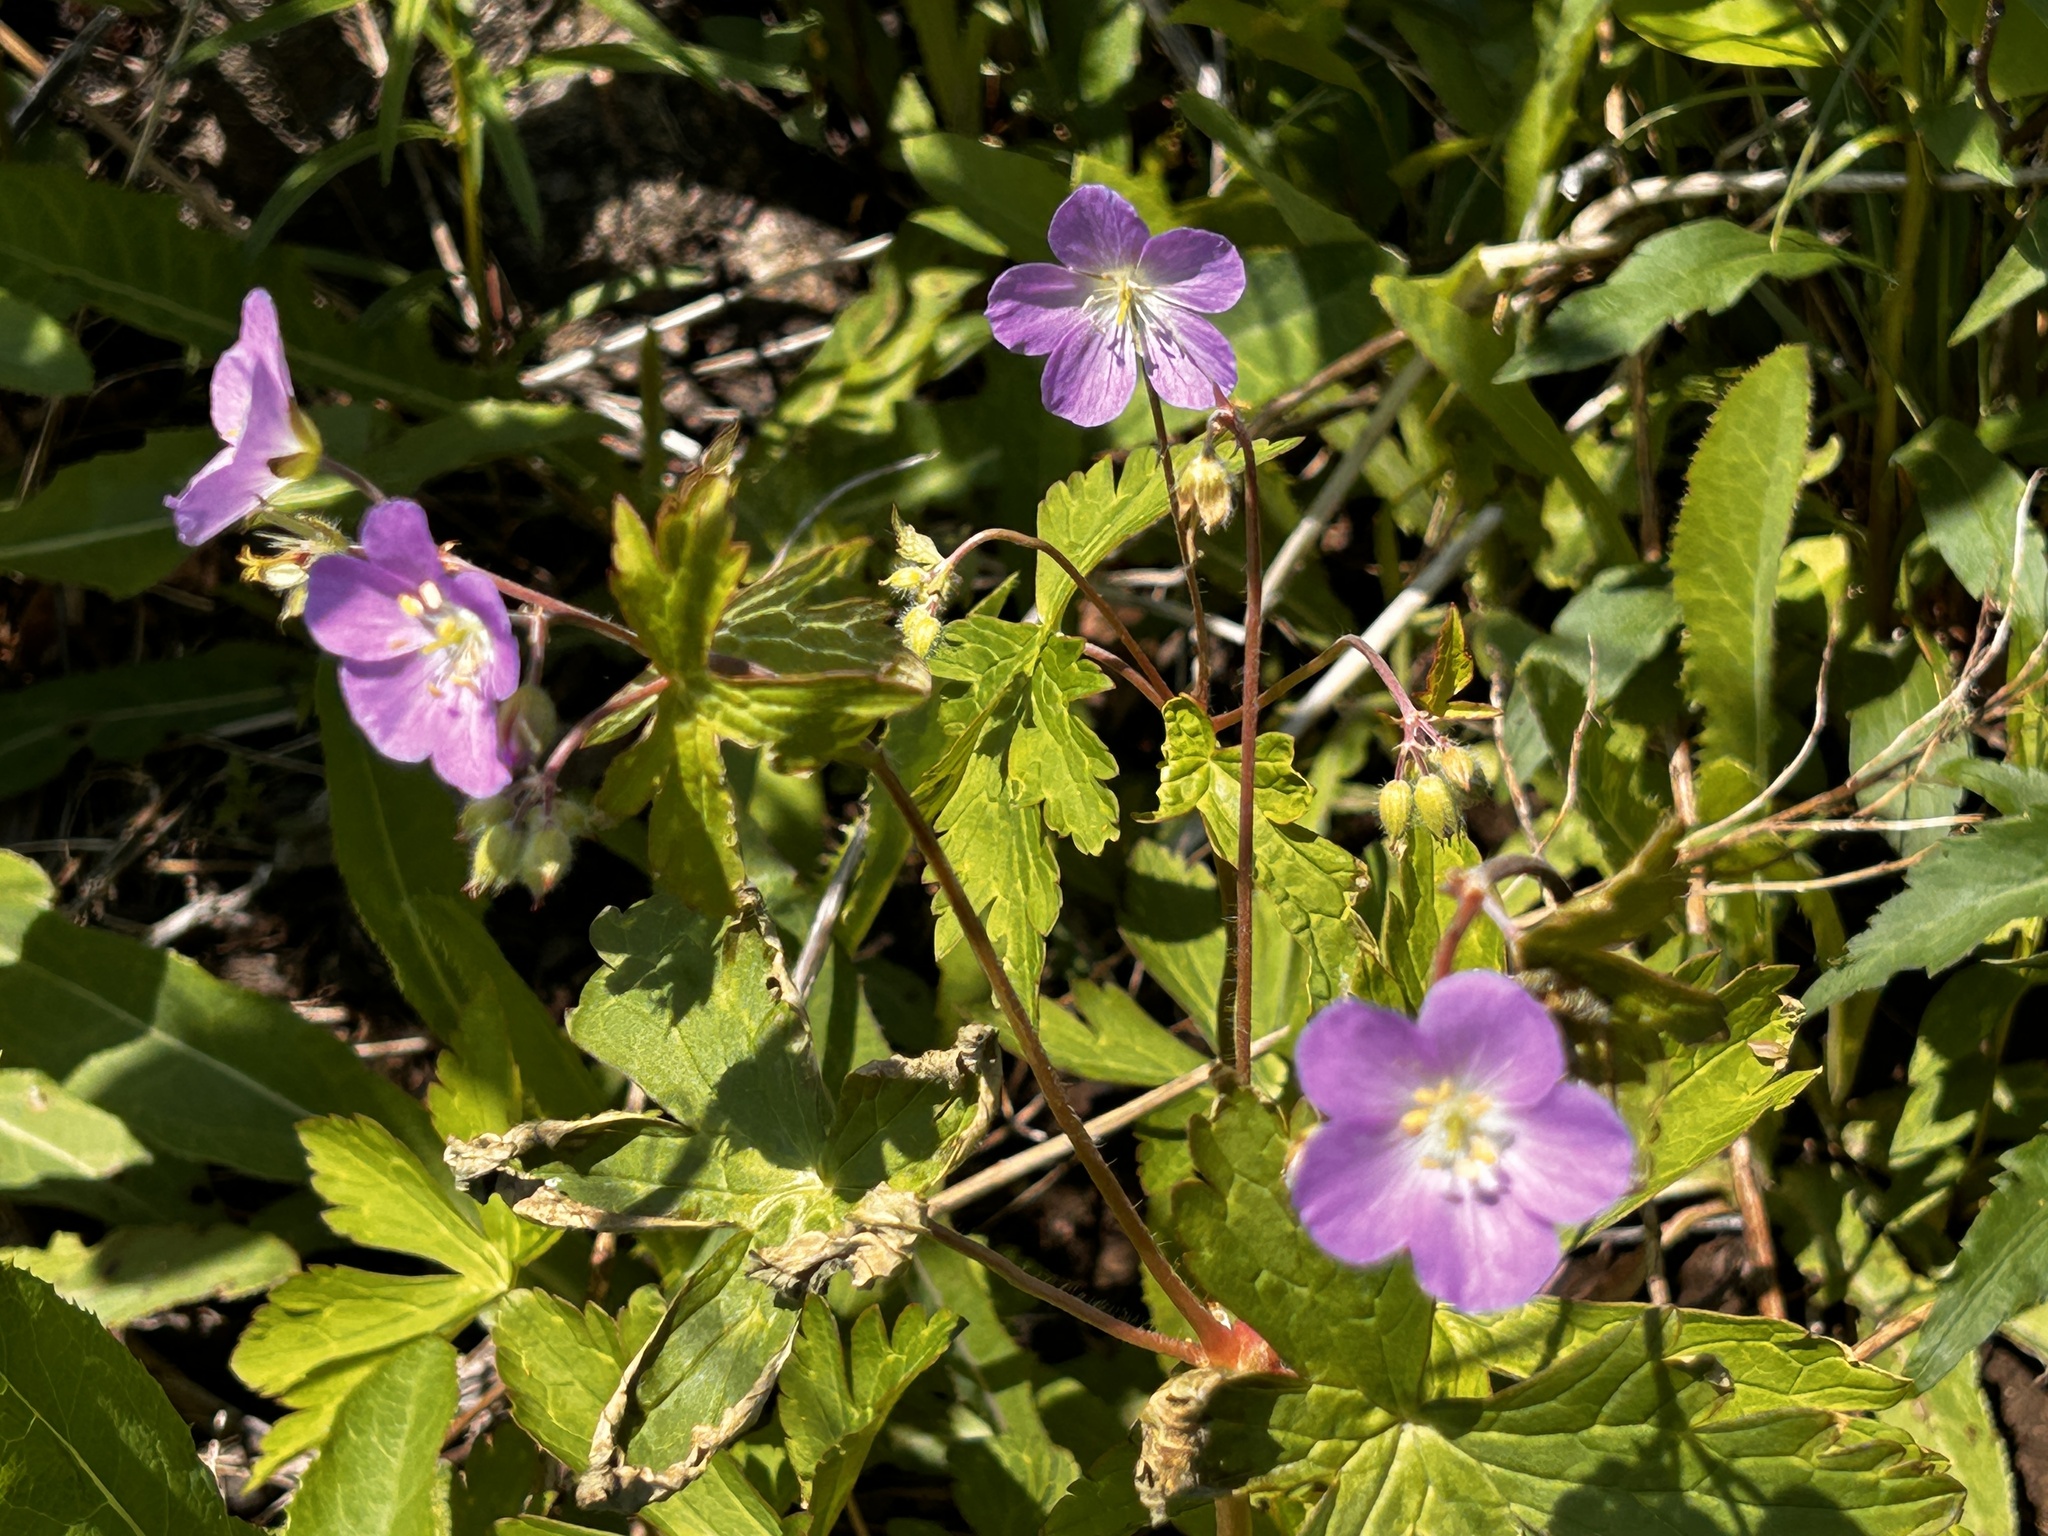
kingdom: Plantae
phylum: Tracheophyta
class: Magnoliopsida
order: Geraniales
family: Geraniaceae
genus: Geranium
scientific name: Geranium maculatum
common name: Spotted geranium
